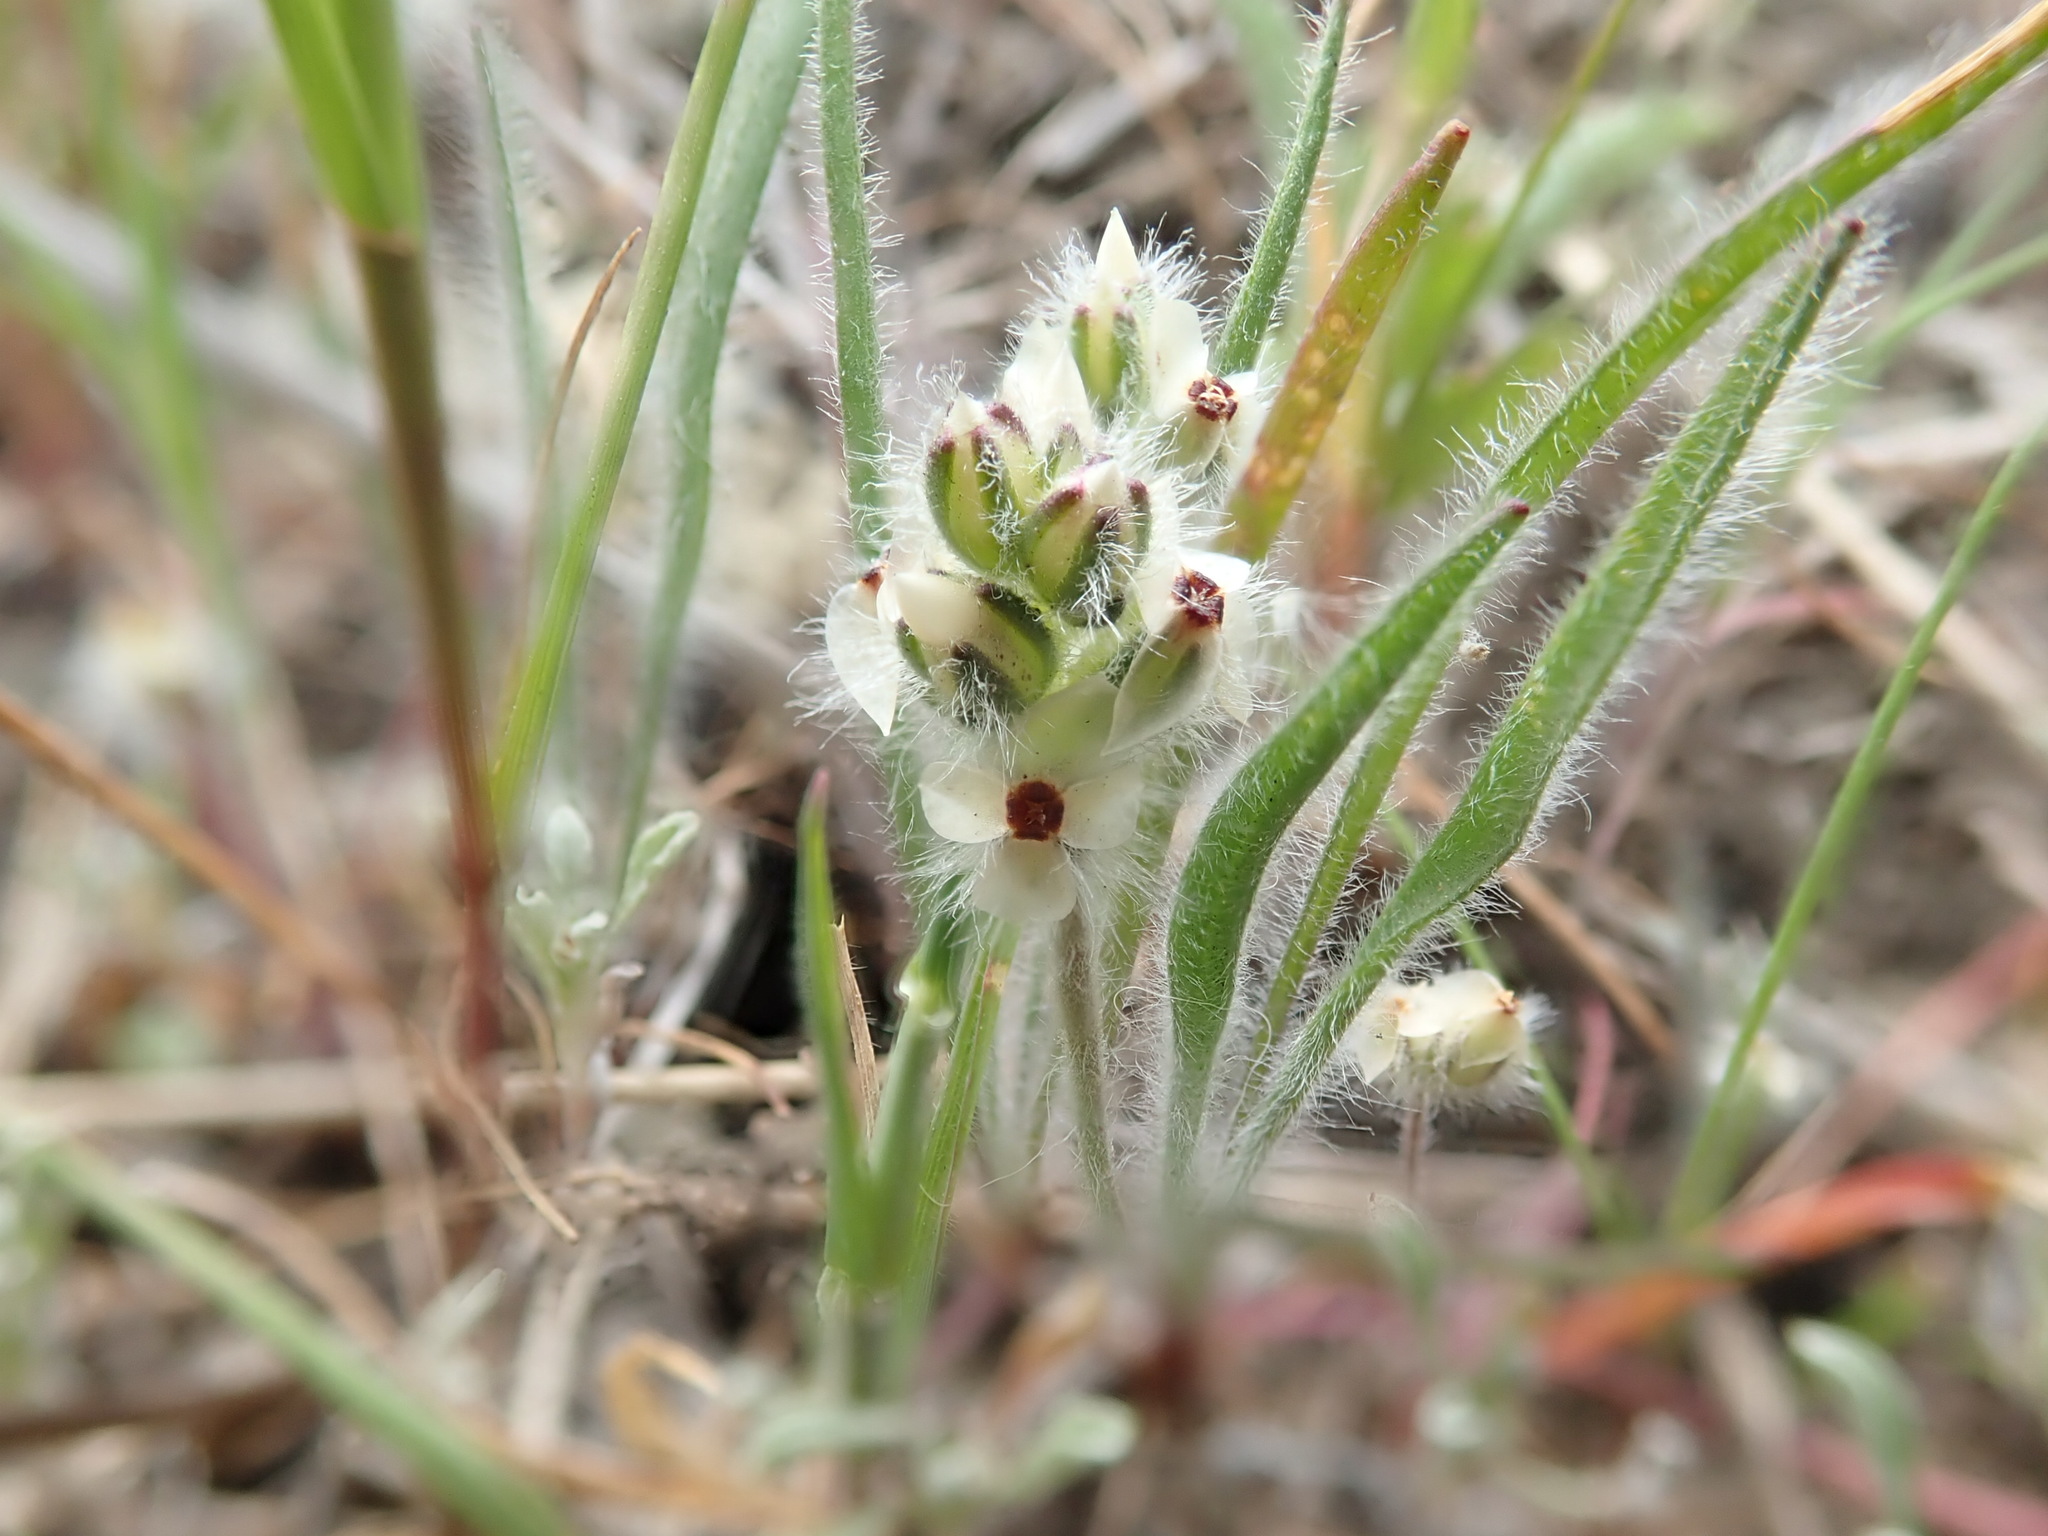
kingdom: Plantae
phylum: Tracheophyta
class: Magnoliopsida
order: Lamiales
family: Plantaginaceae
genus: Plantago
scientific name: Plantago erecta
